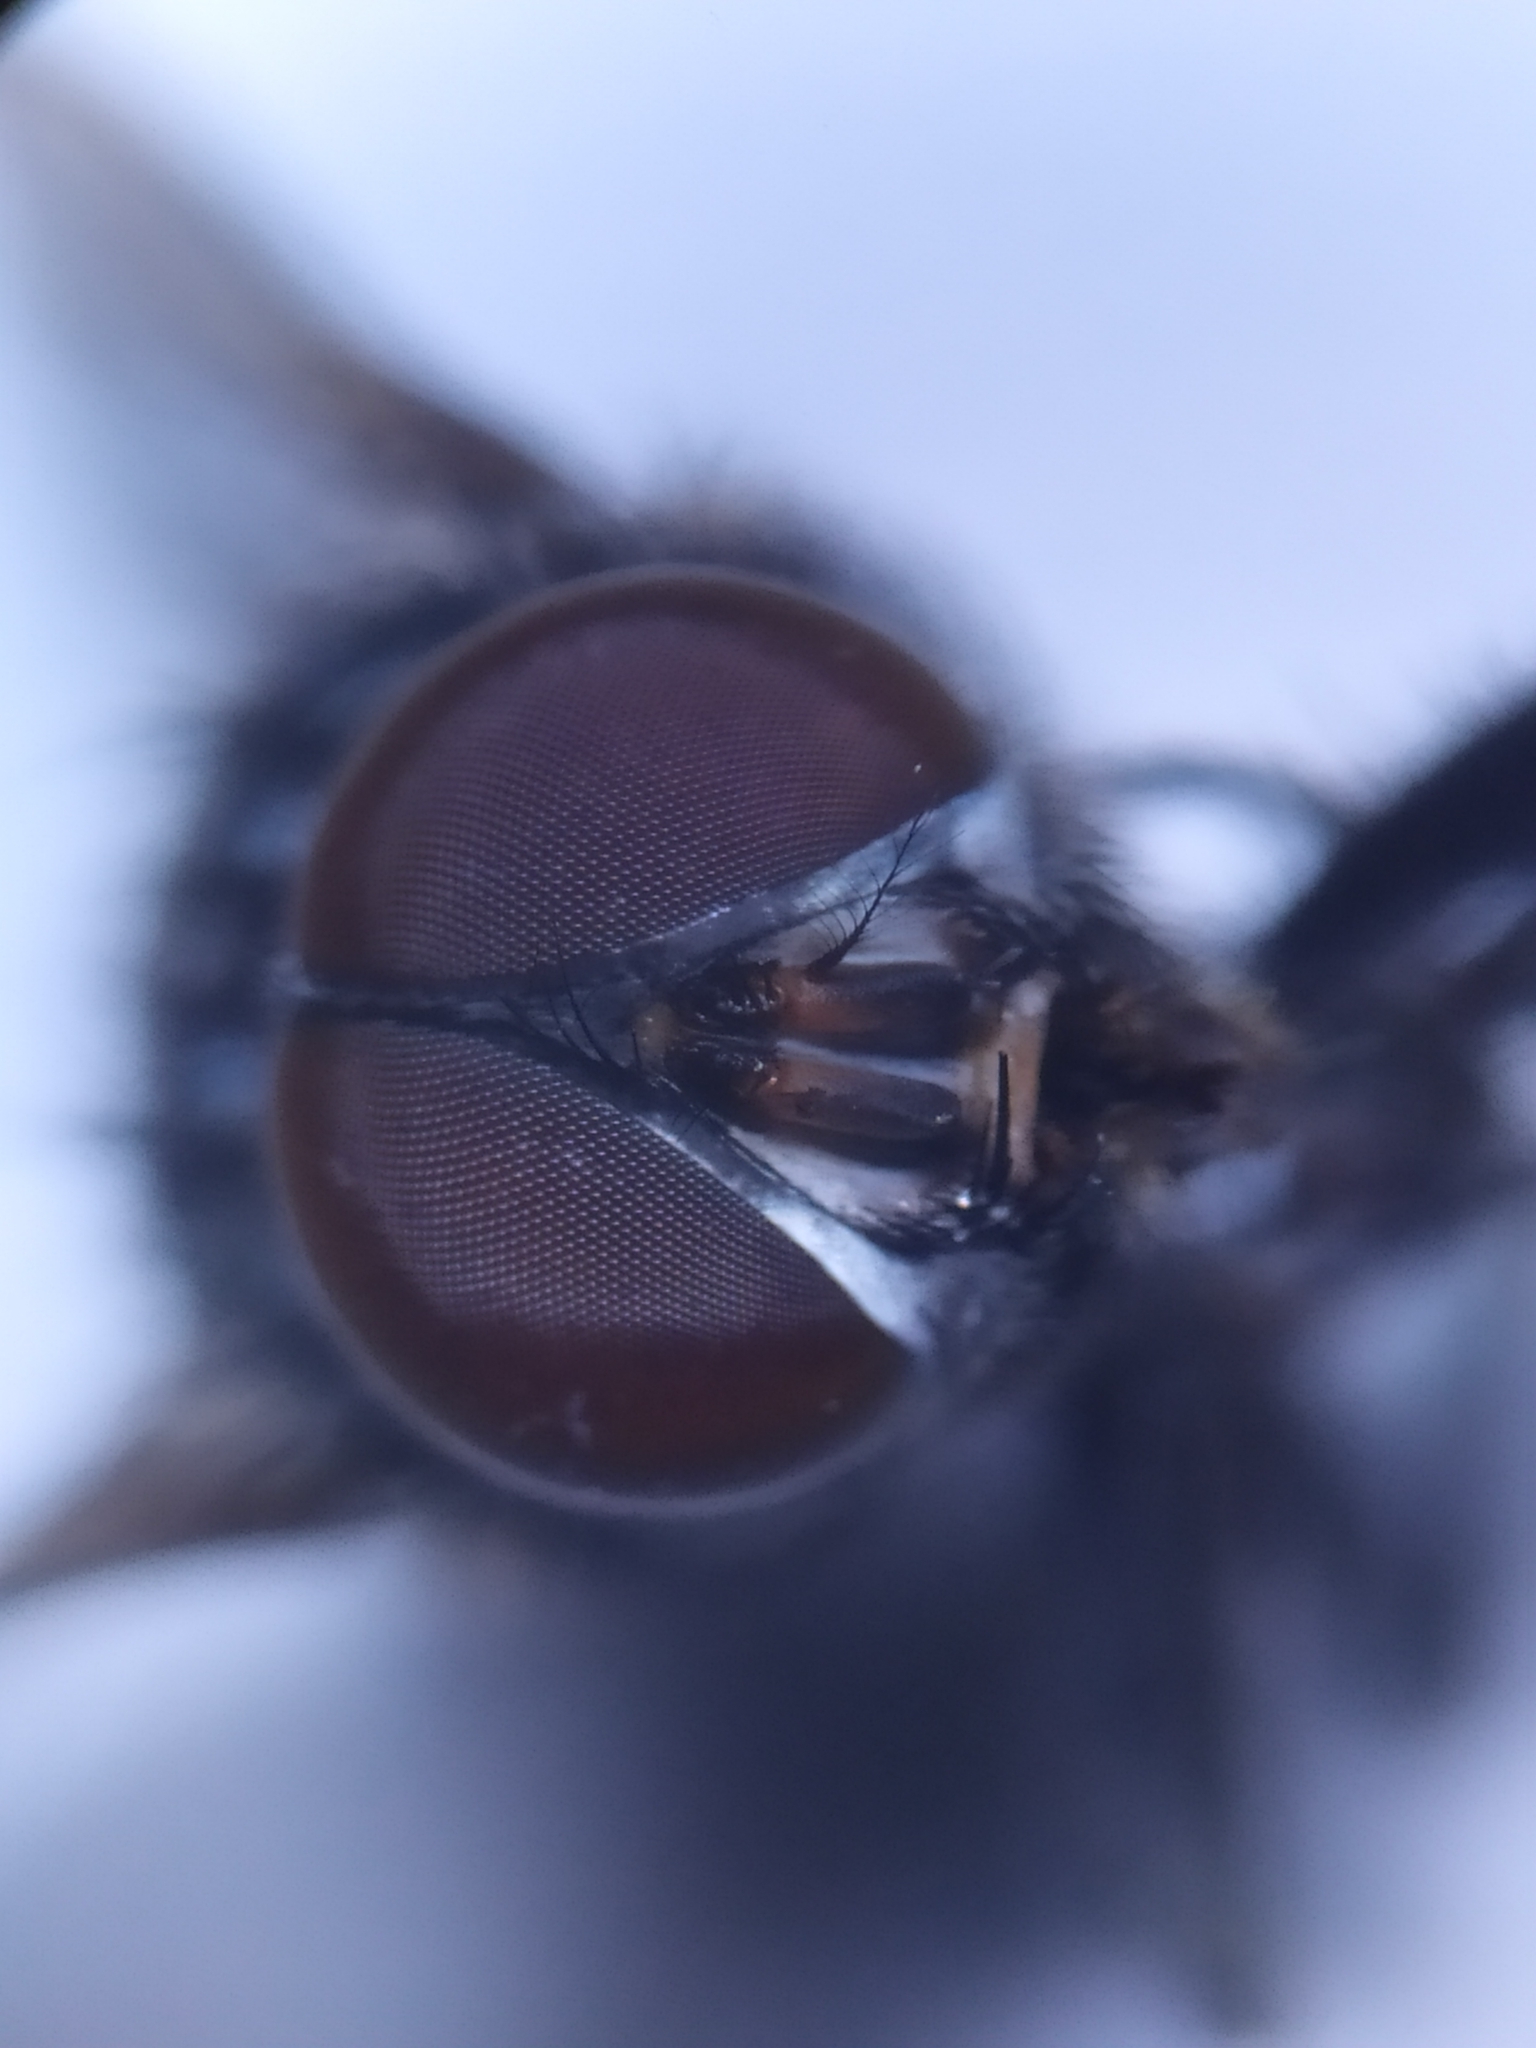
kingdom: Animalia
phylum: Arthropoda
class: Insecta
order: Diptera
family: Muscidae
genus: Muscina
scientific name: Muscina prolapsa
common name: Muscoid fly
